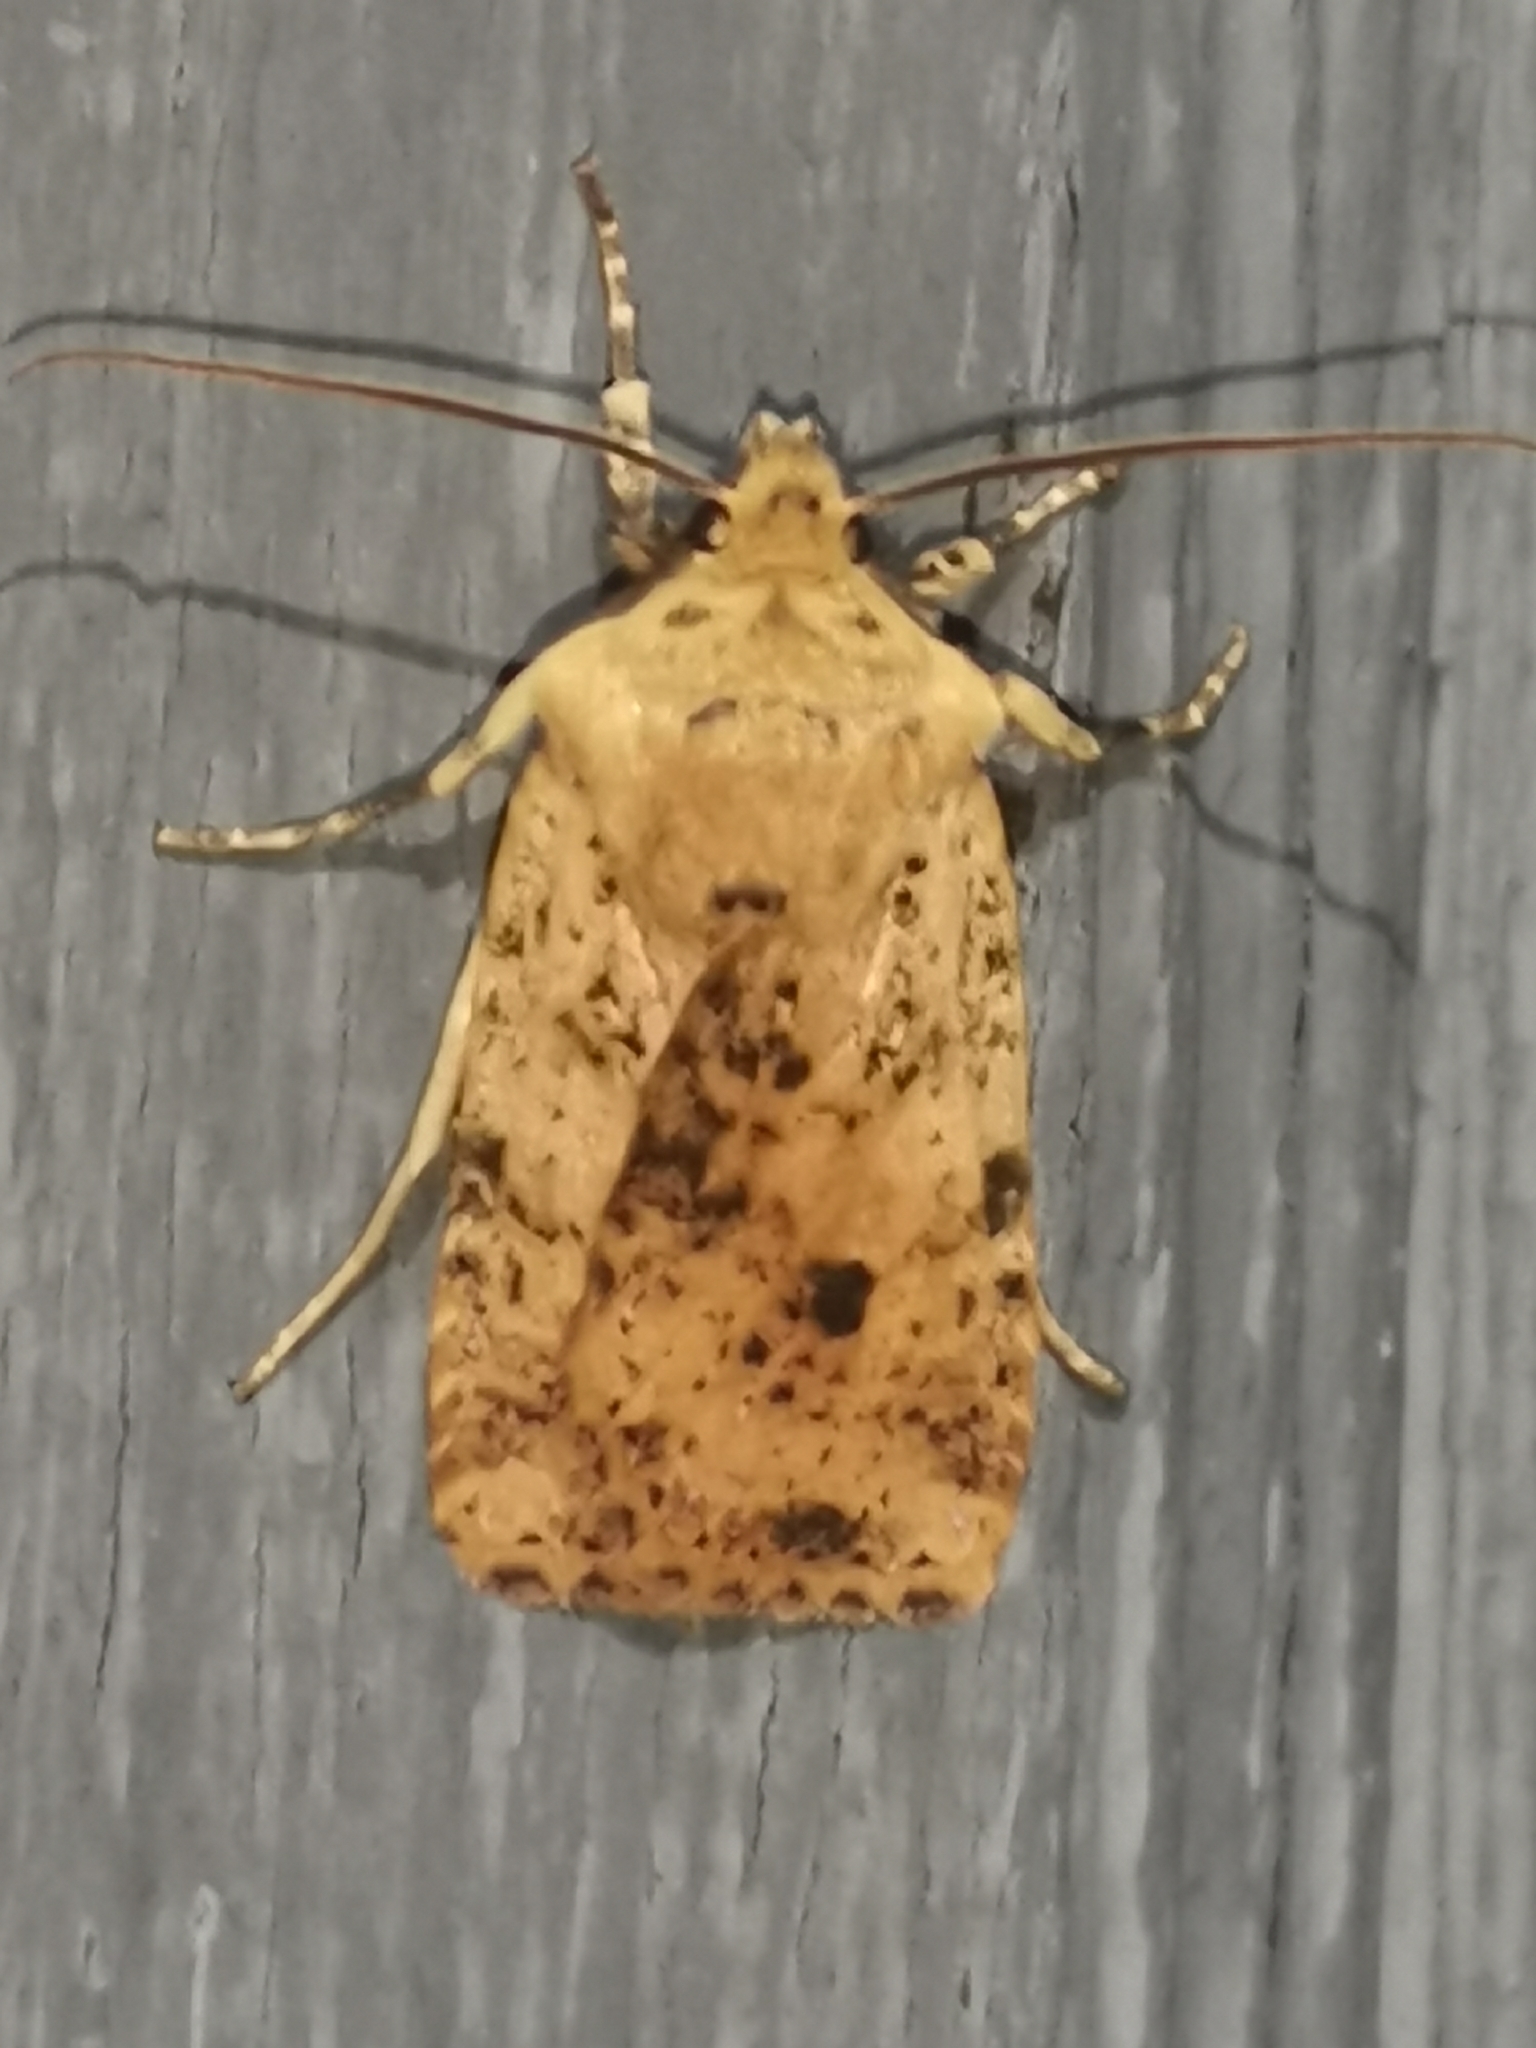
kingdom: Animalia
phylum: Arthropoda
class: Insecta
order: Lepidoptera
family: Noctuidae
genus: Conistra
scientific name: Conistra rubiginea
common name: Dotted chestnut
